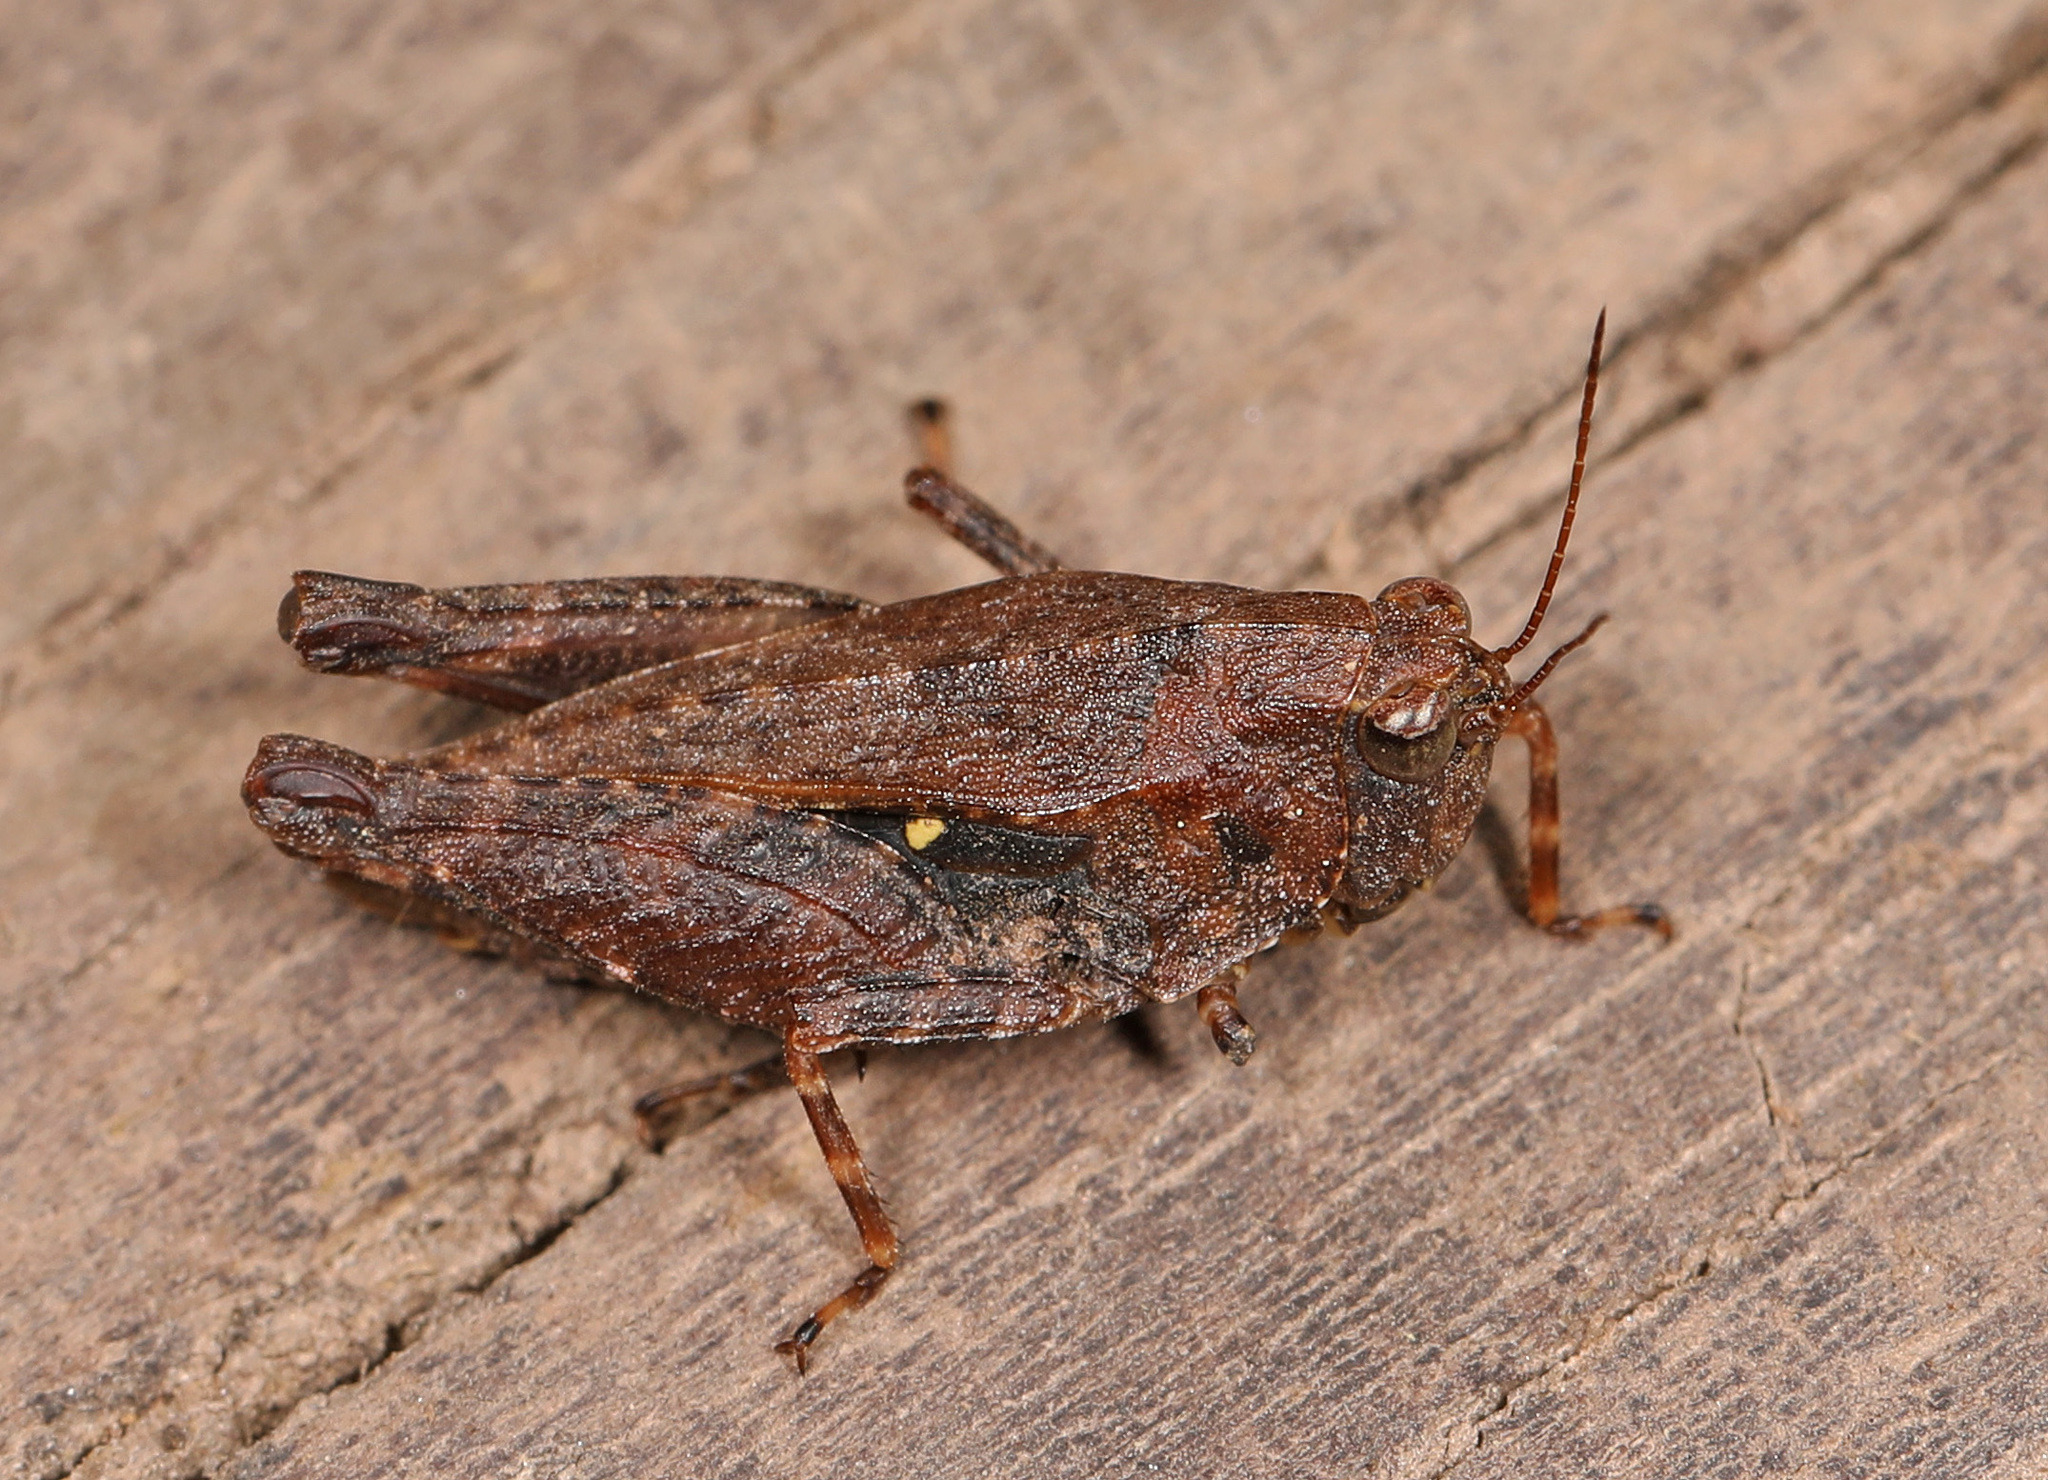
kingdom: Animalia
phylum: Arthropoda
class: Insecta
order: Orthoptera
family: Tetrigidae
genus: Tettigidea
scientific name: Tettigidea laterale
